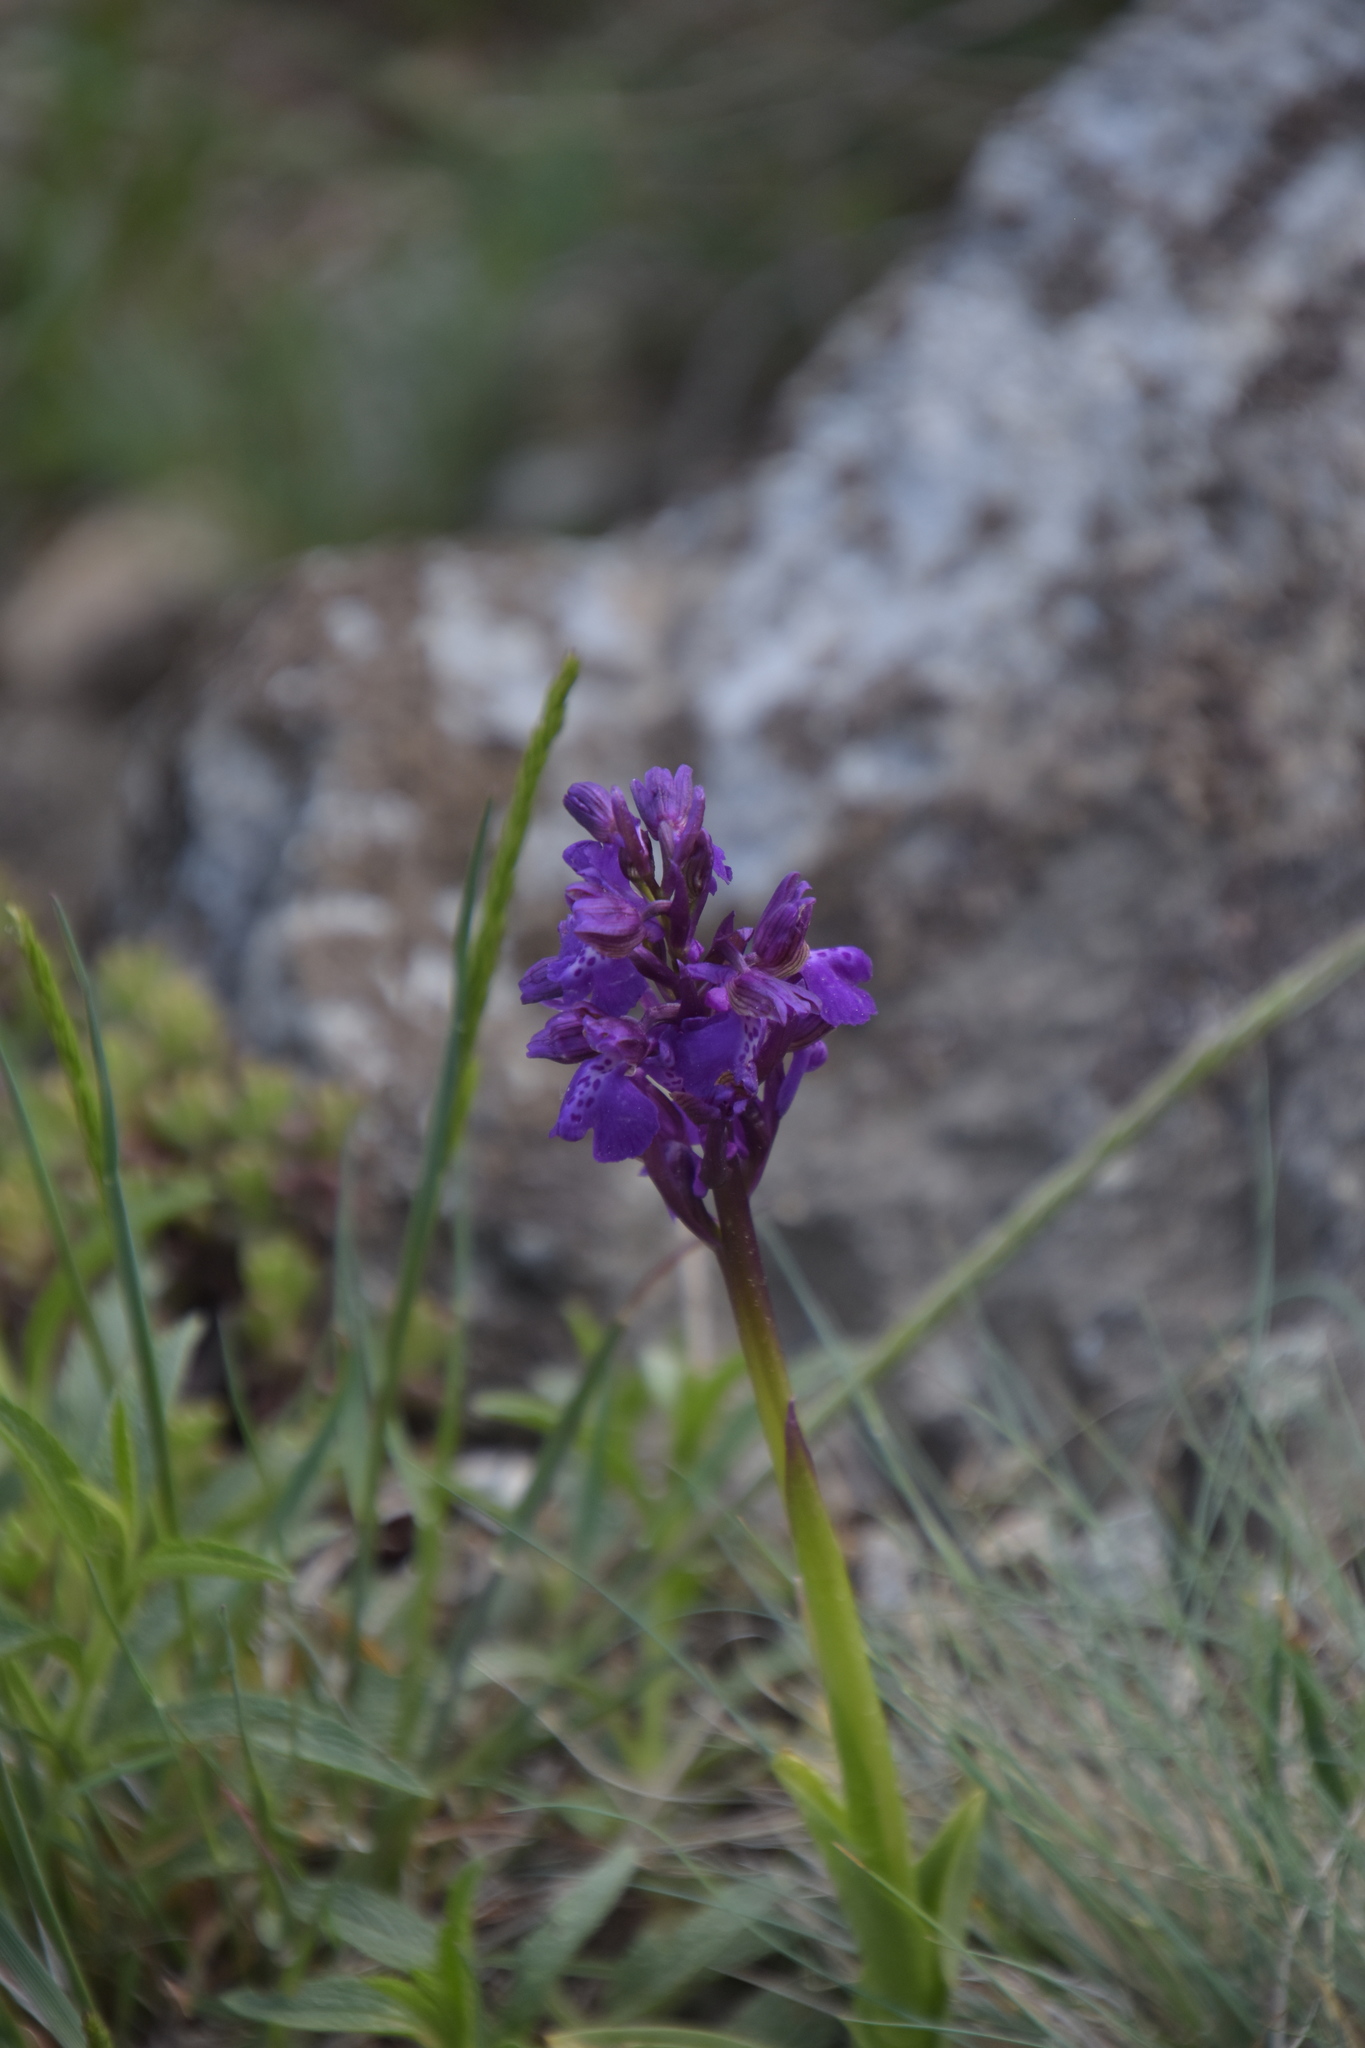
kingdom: Plantae
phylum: Tracheophyta
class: Liliopsida
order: Asparagales
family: Orchidaceae
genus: Anacamptis
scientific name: Anacamptis morio
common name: Green-winged orchid
